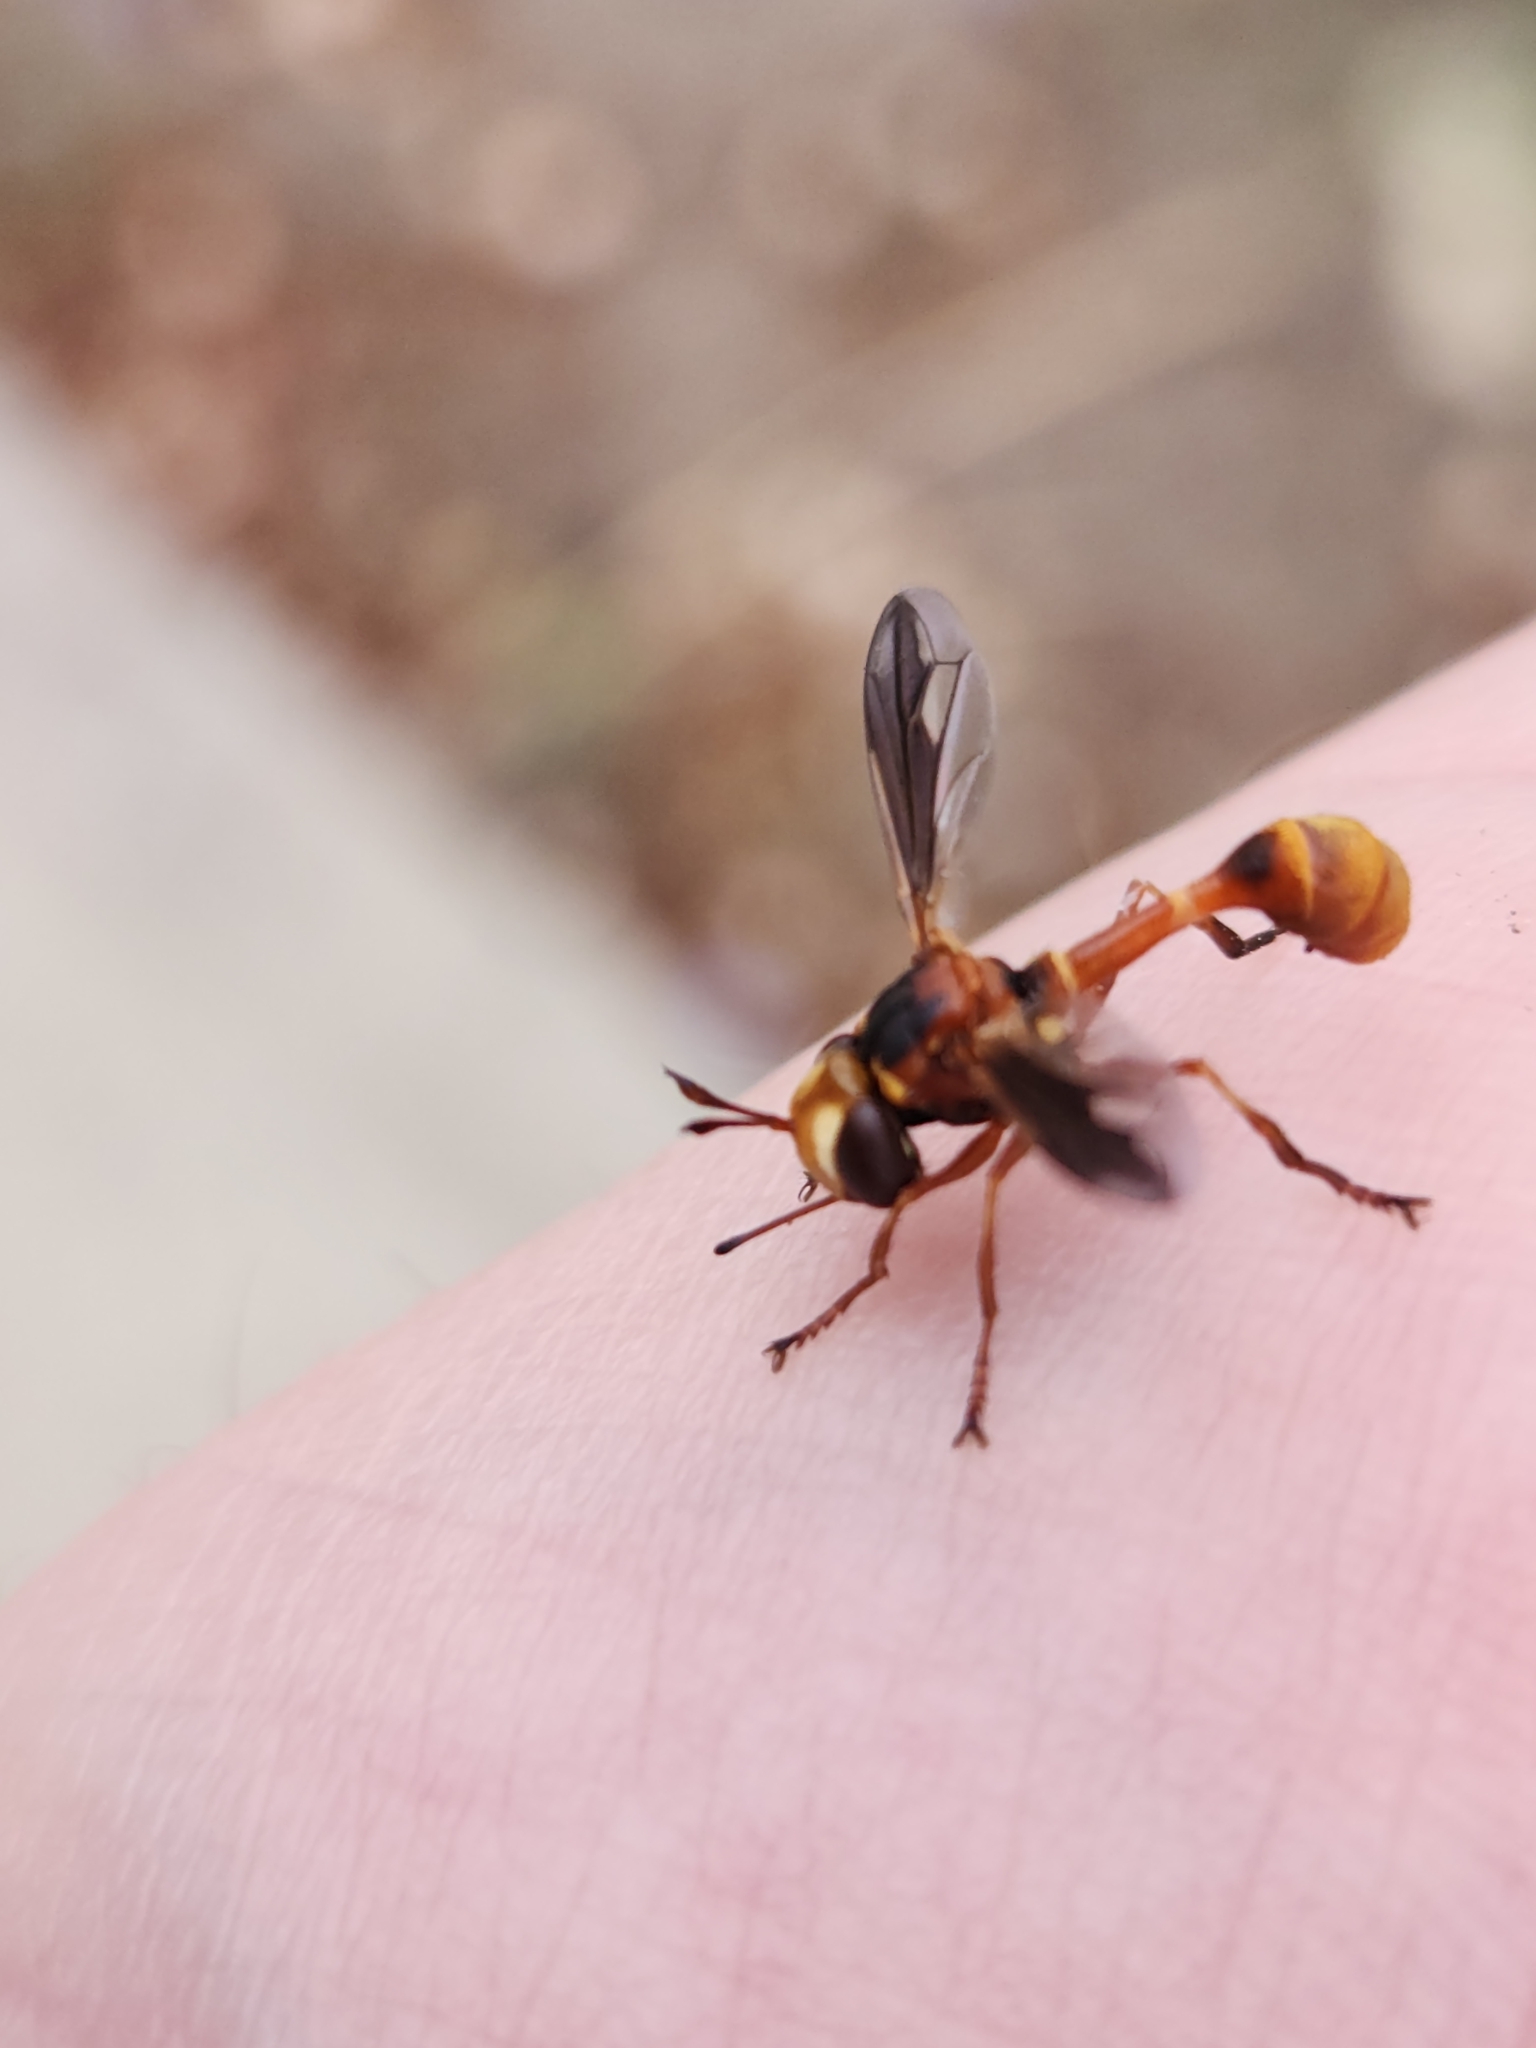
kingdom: Animalia
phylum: Arthropoda
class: Insecta
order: Diptera
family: Conopidae
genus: Physocephala
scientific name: Physocephala texana
